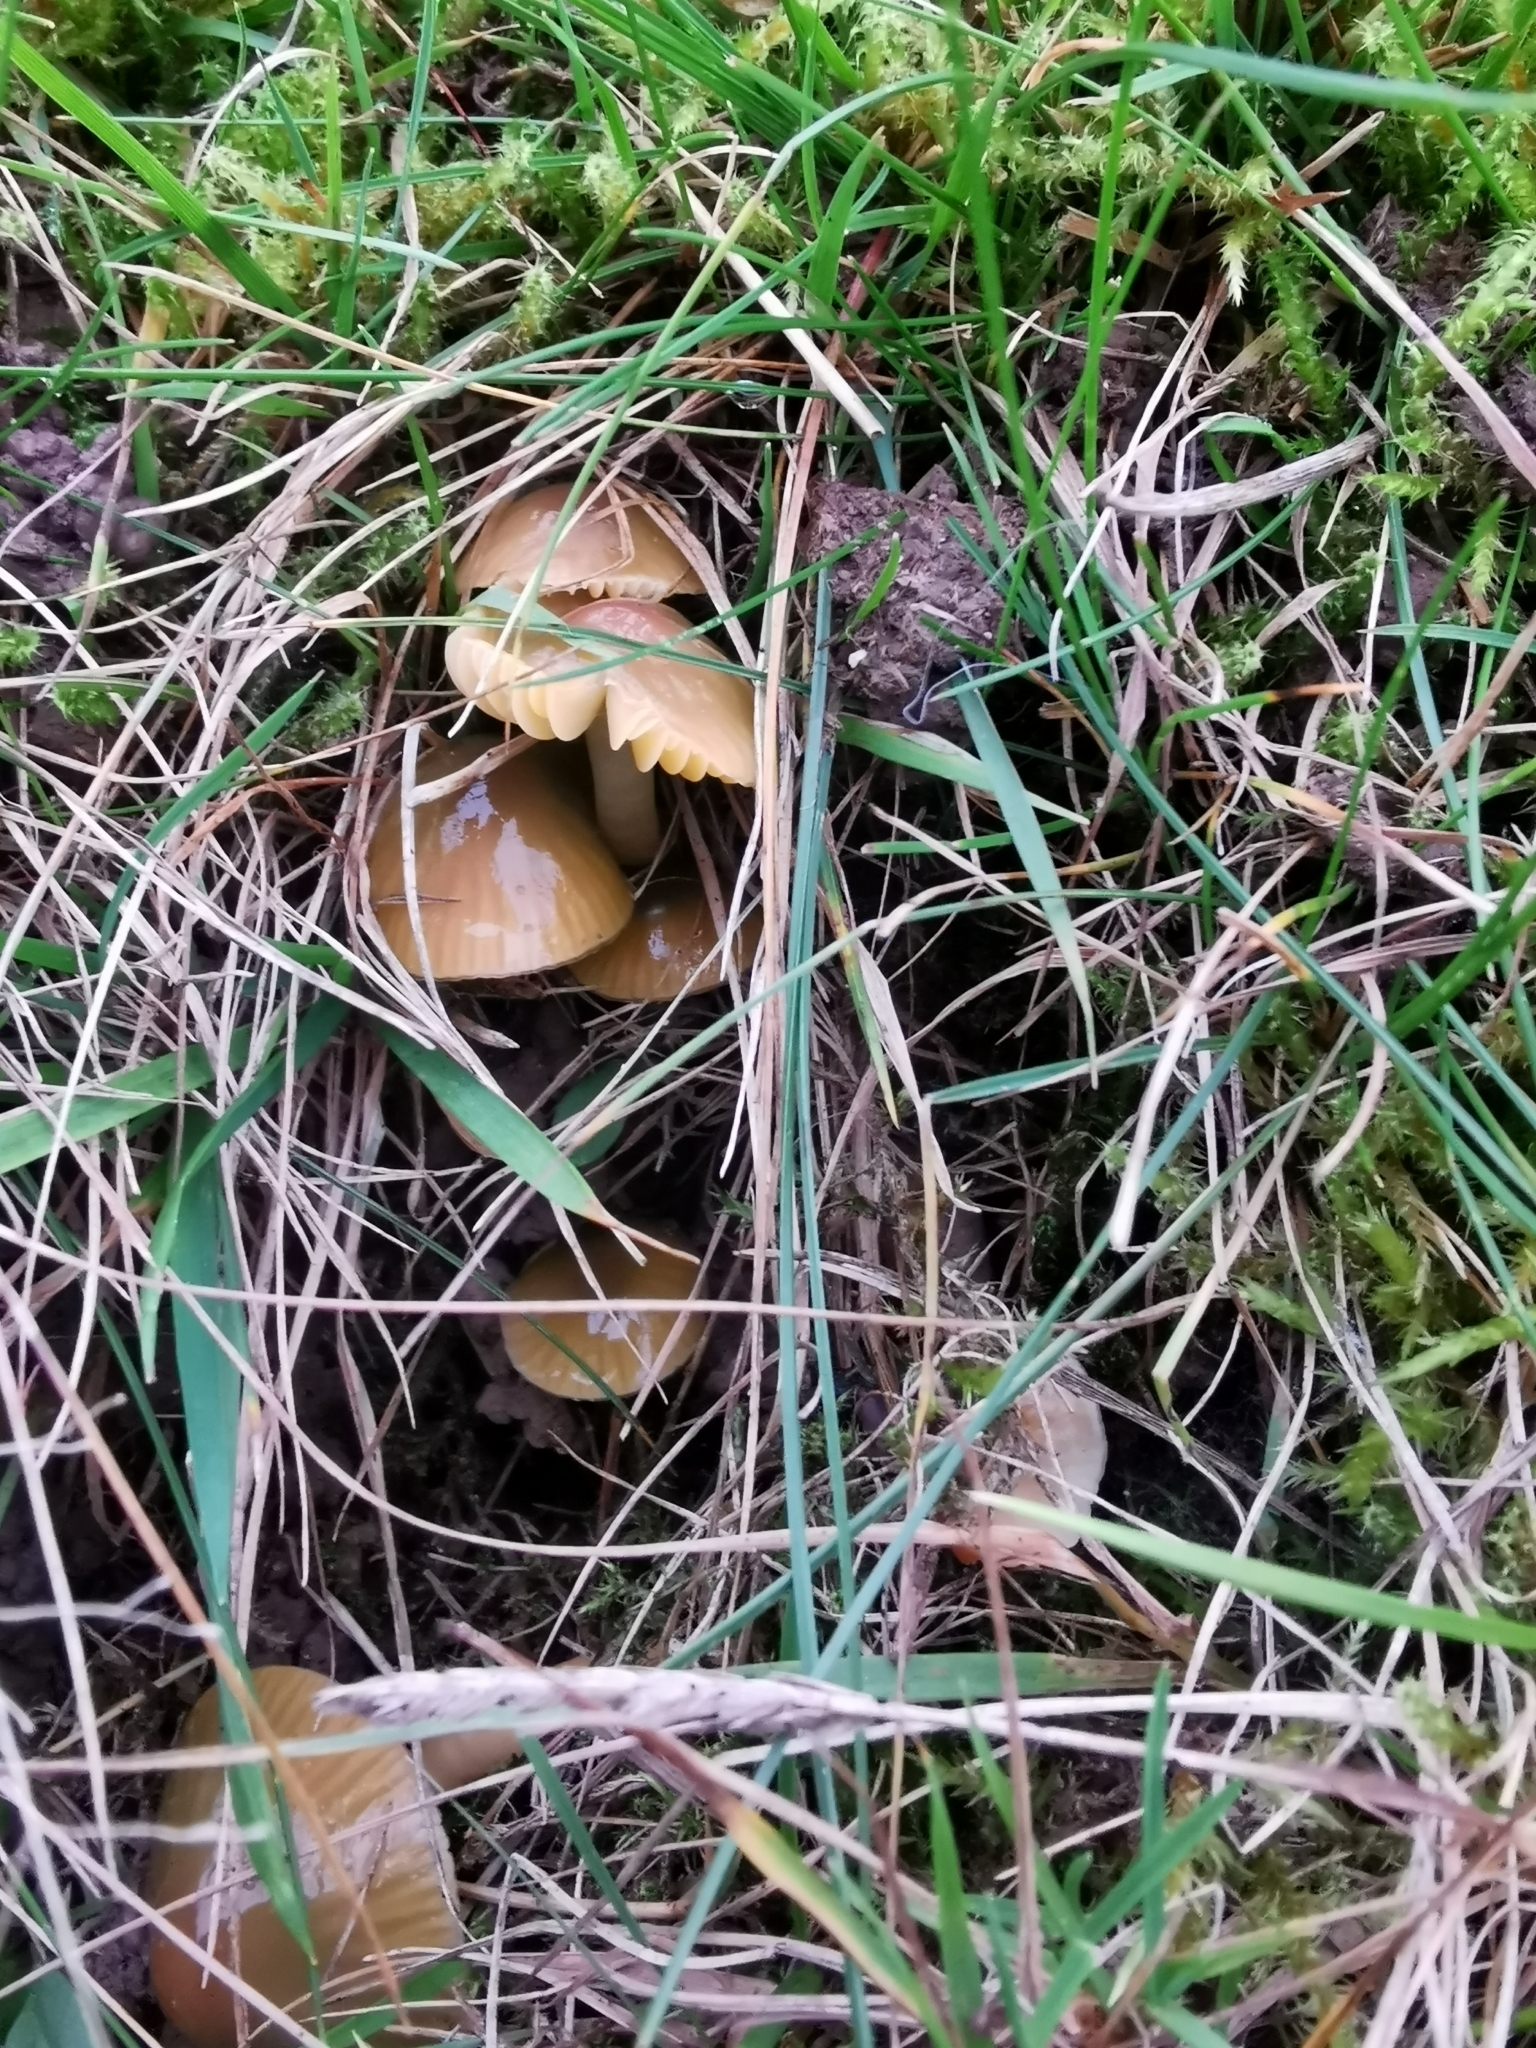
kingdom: Fungi
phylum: Basidiomycota
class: Agaricomycetes
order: Agaricales
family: Hygrophoraceae
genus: Gliophorus
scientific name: Gliophorus psittacinus
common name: Parrot wax-cap
